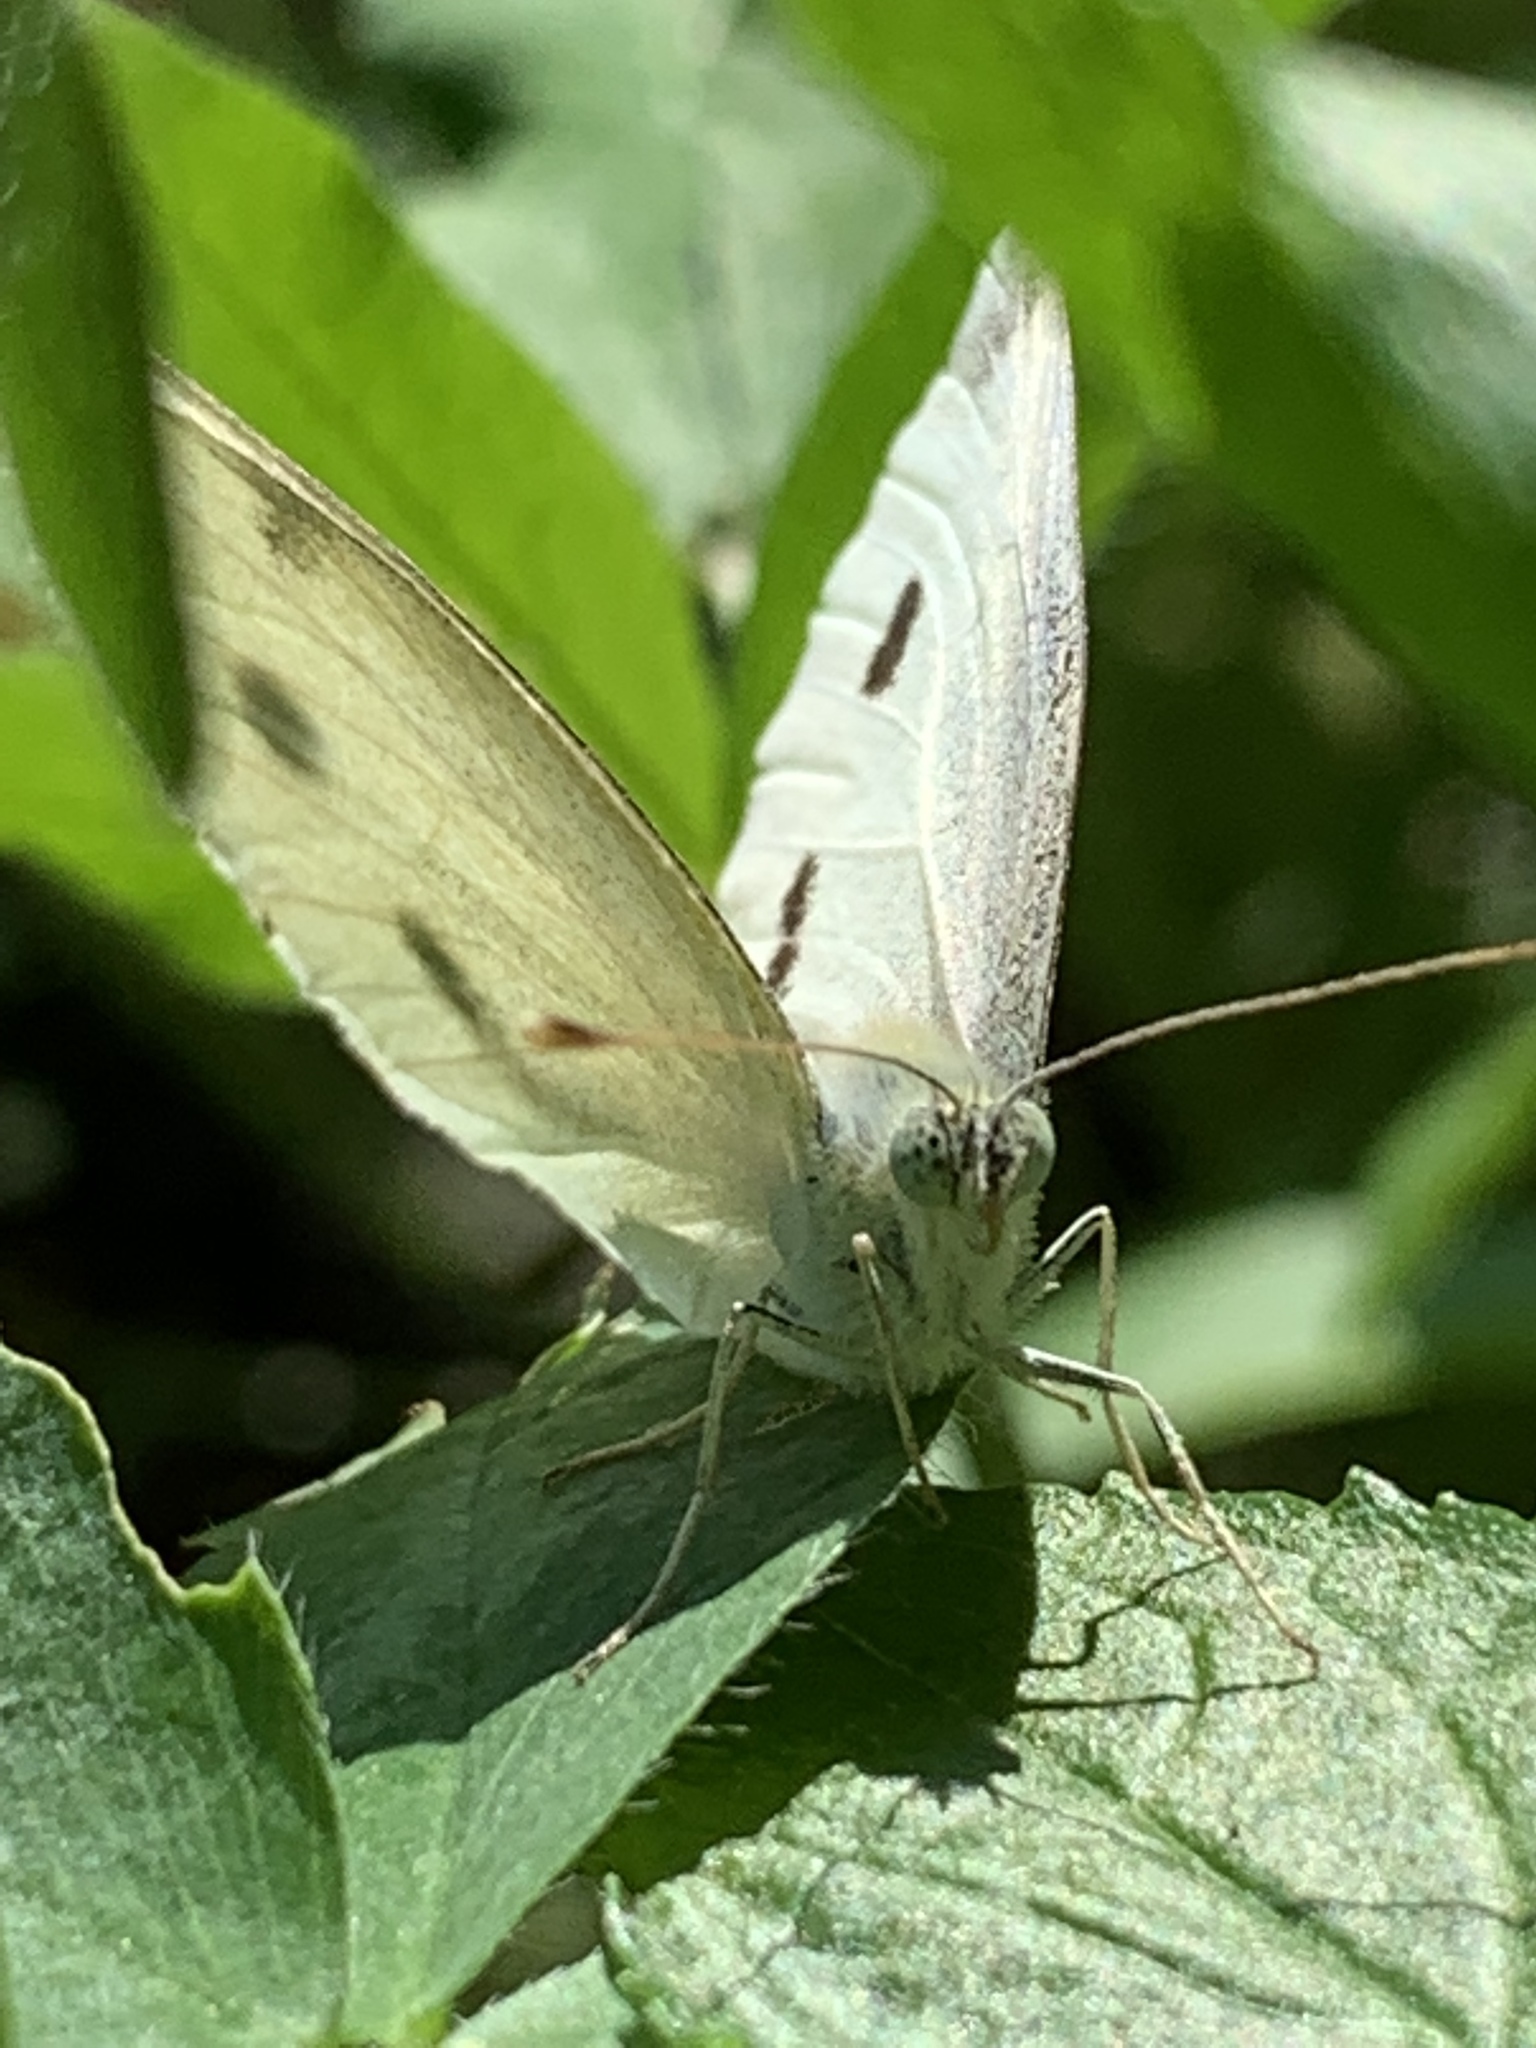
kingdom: Animalia
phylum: Arthropoda
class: Insecta
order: Lepidoptera
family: Pieridae
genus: Pieris
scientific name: Pieris rapae
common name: Small white
